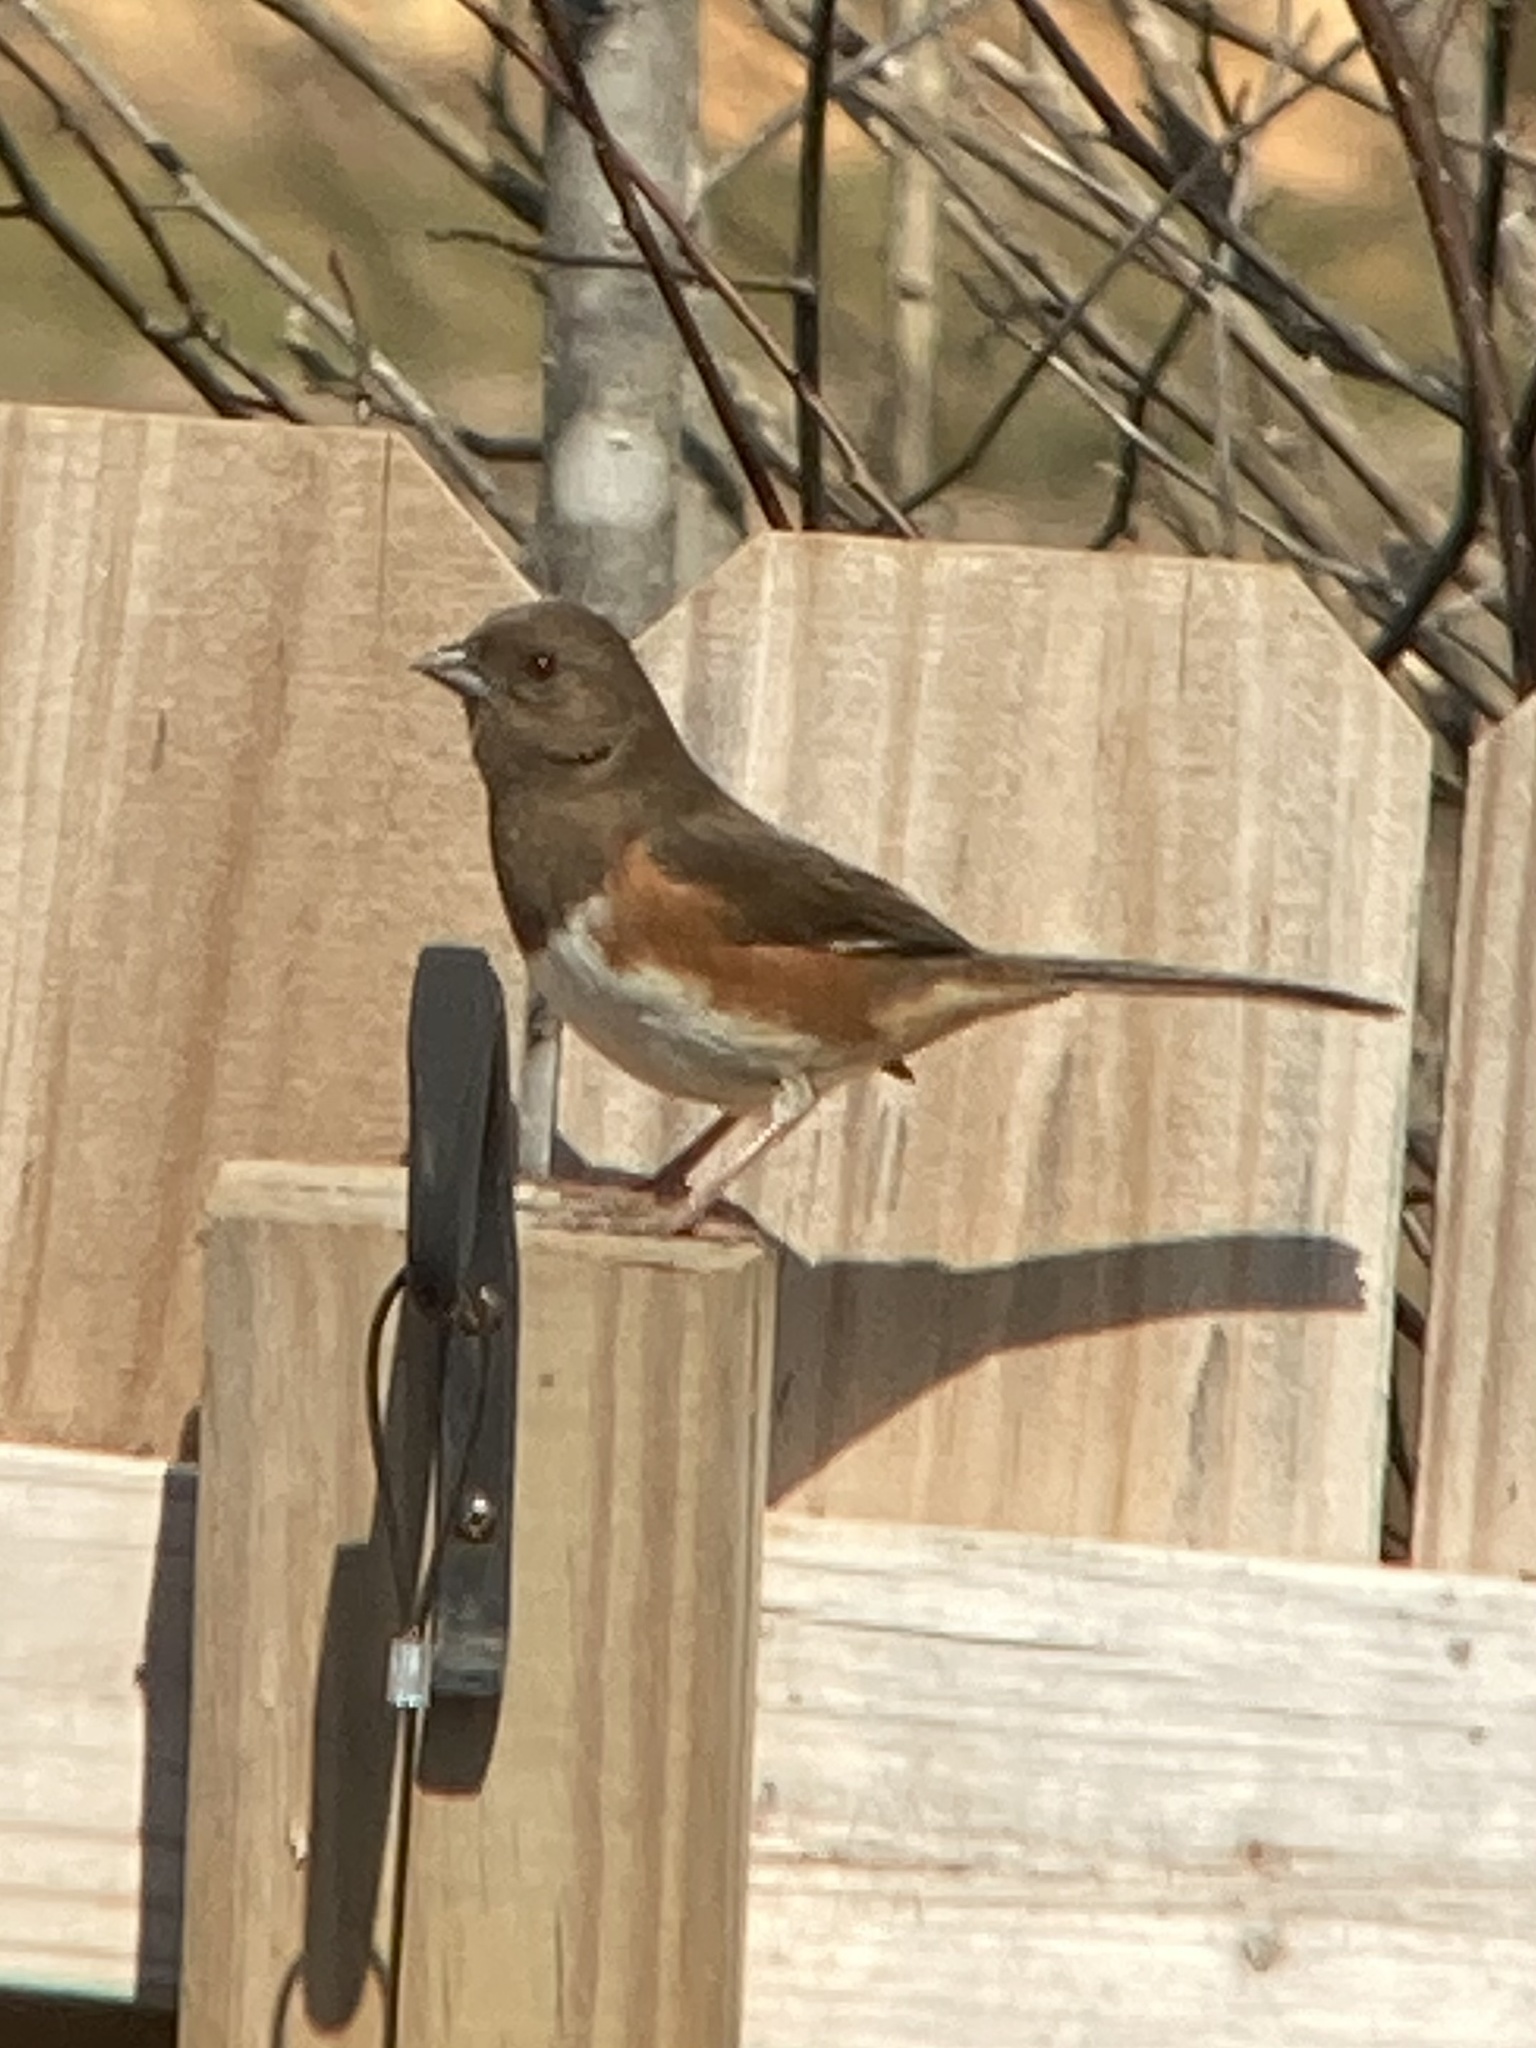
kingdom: Animalia
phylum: Chordata
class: Aves
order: Passeriformes
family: Passerellidae
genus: Pipilo
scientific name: Pipilo erythrophthalmus
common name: Eastern towhee
